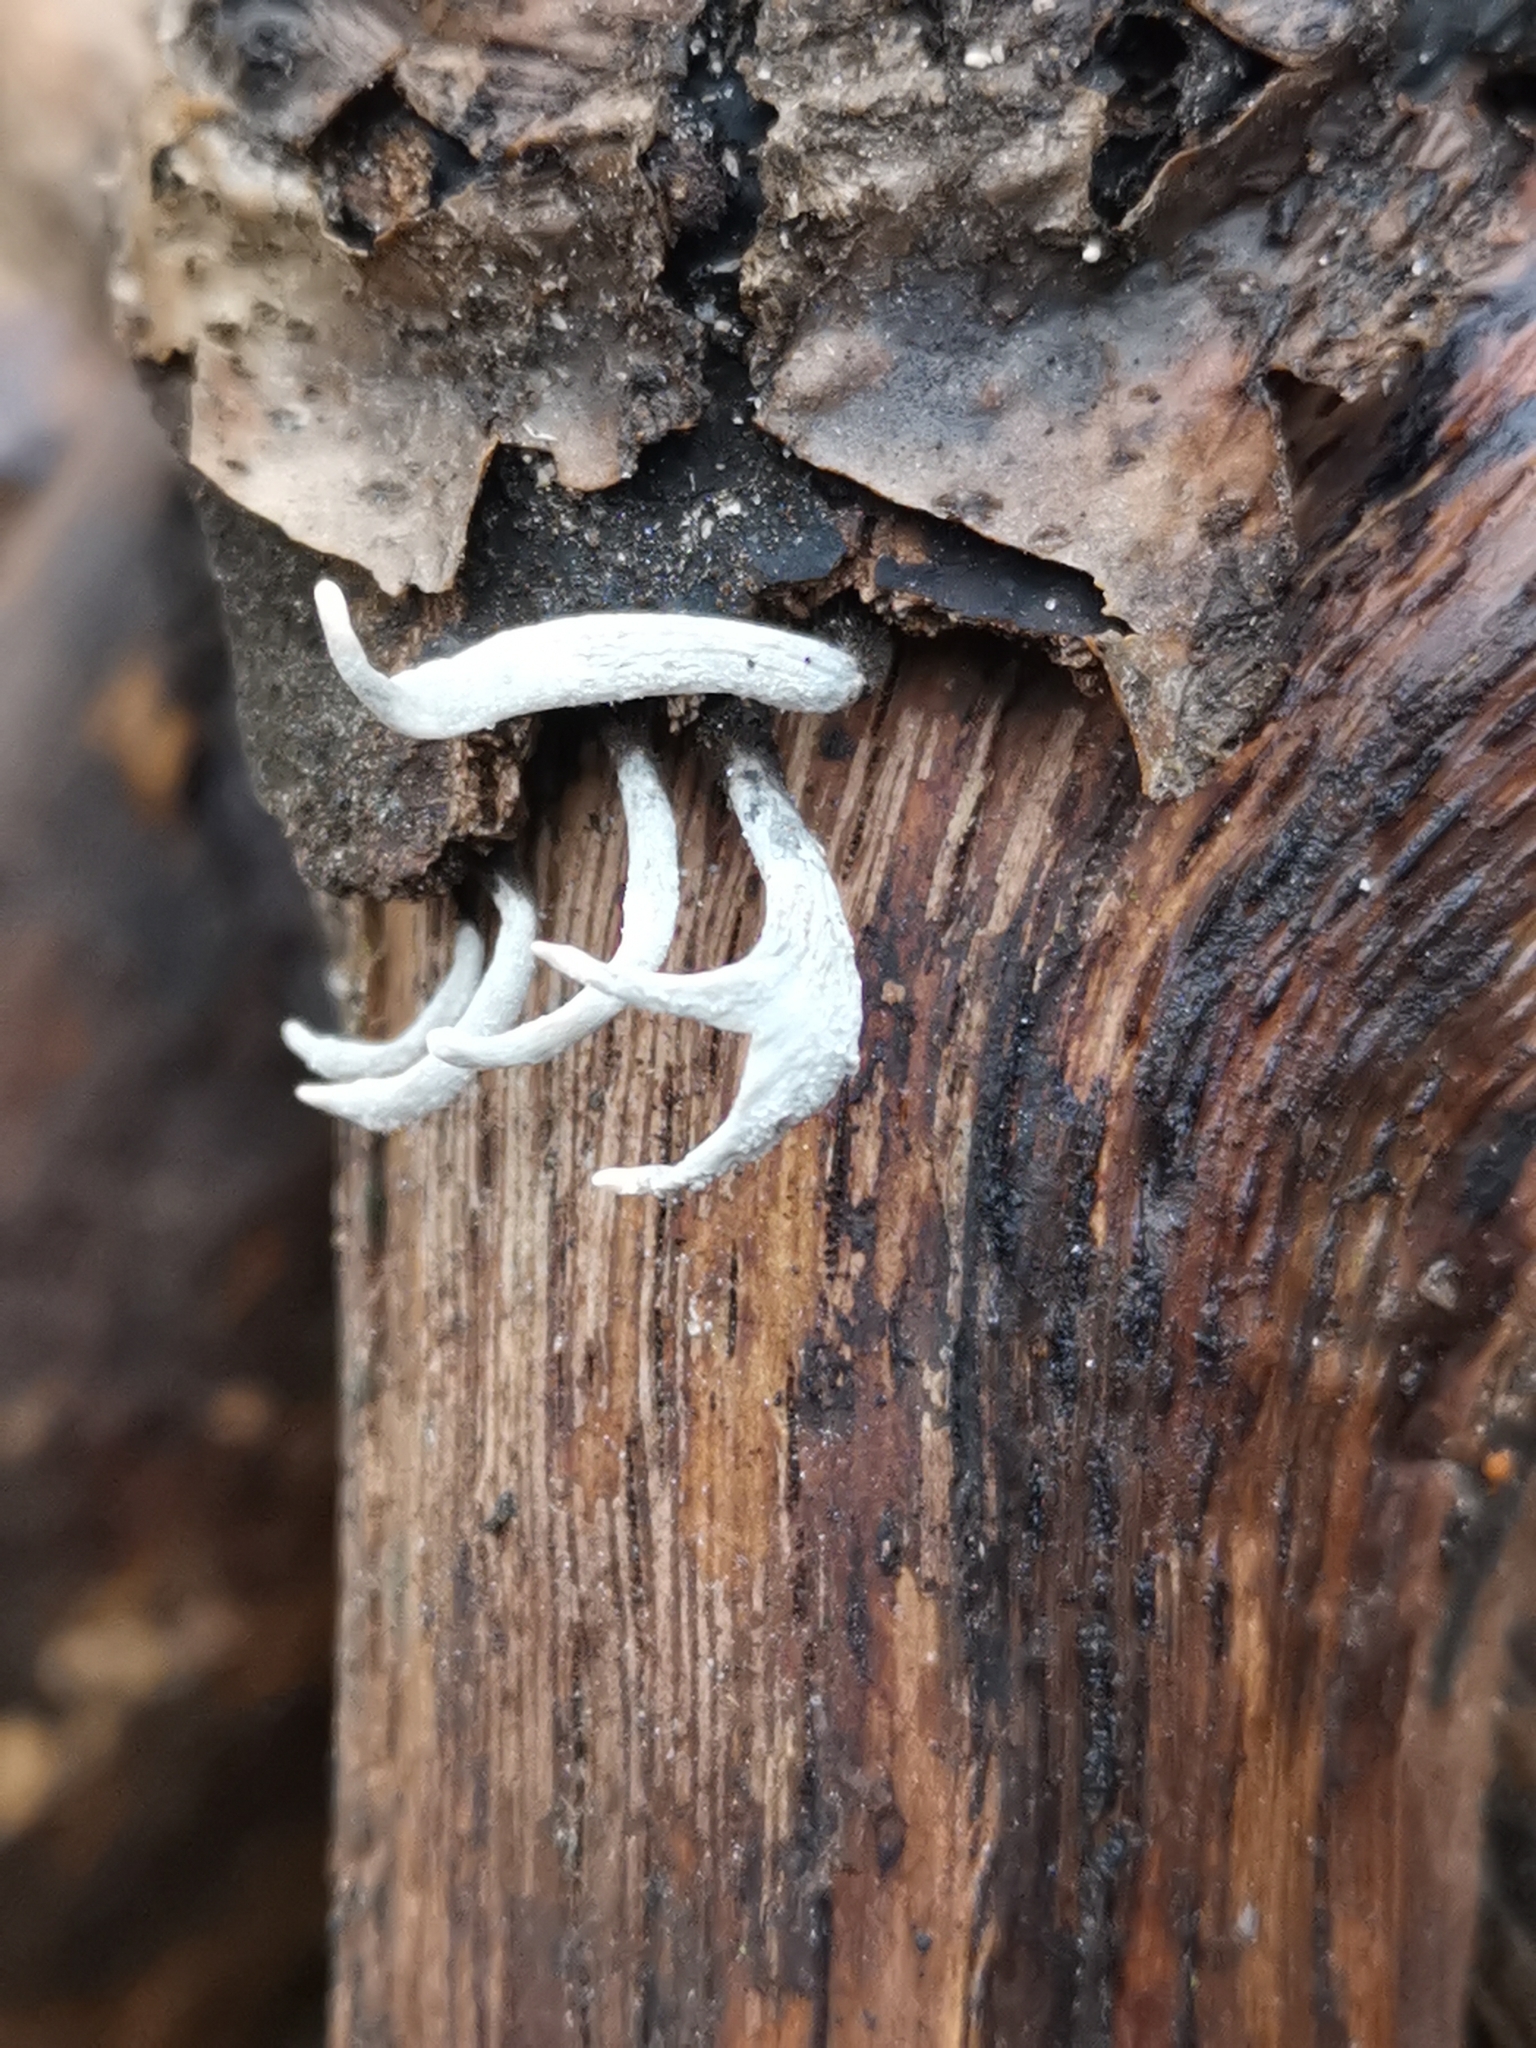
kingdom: Fungi
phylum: Ascomycota
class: Sordariomycetes
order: Xylariales
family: Xylariaceae
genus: Xylaria
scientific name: Xylaria hypoxylon
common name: Candle-snuff fungus
